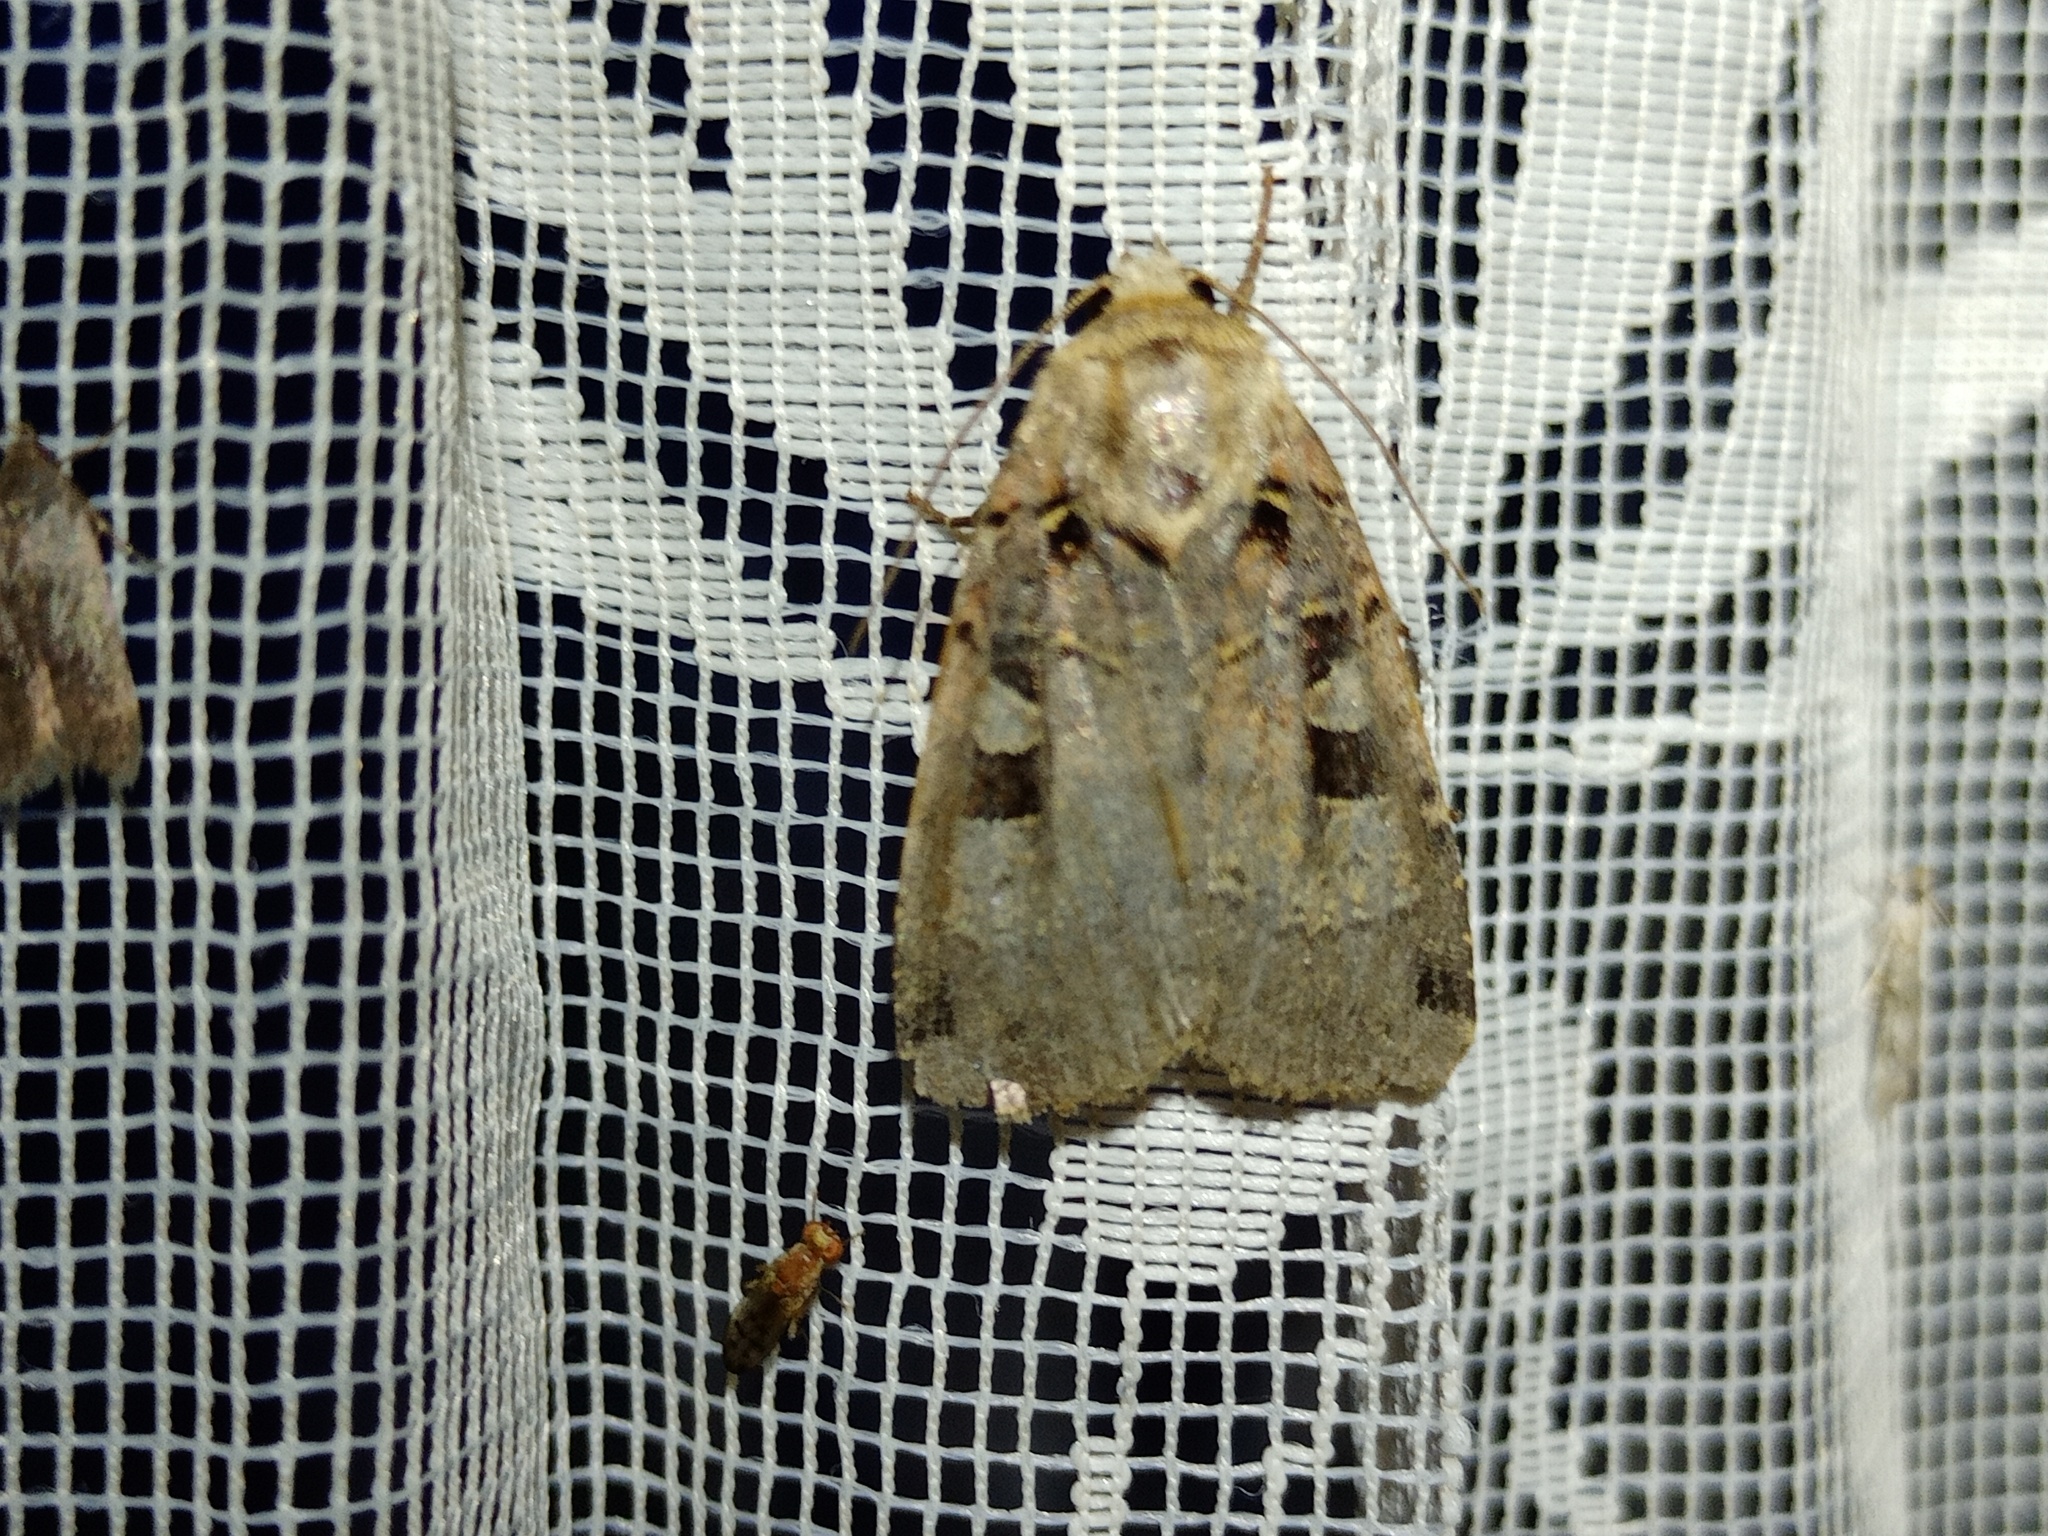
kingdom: Animalia
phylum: Arthropoda
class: Insecta
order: Lepidoptera
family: Noctuidae
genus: Xestia
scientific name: Xestia triangulum
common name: Double square-spot
